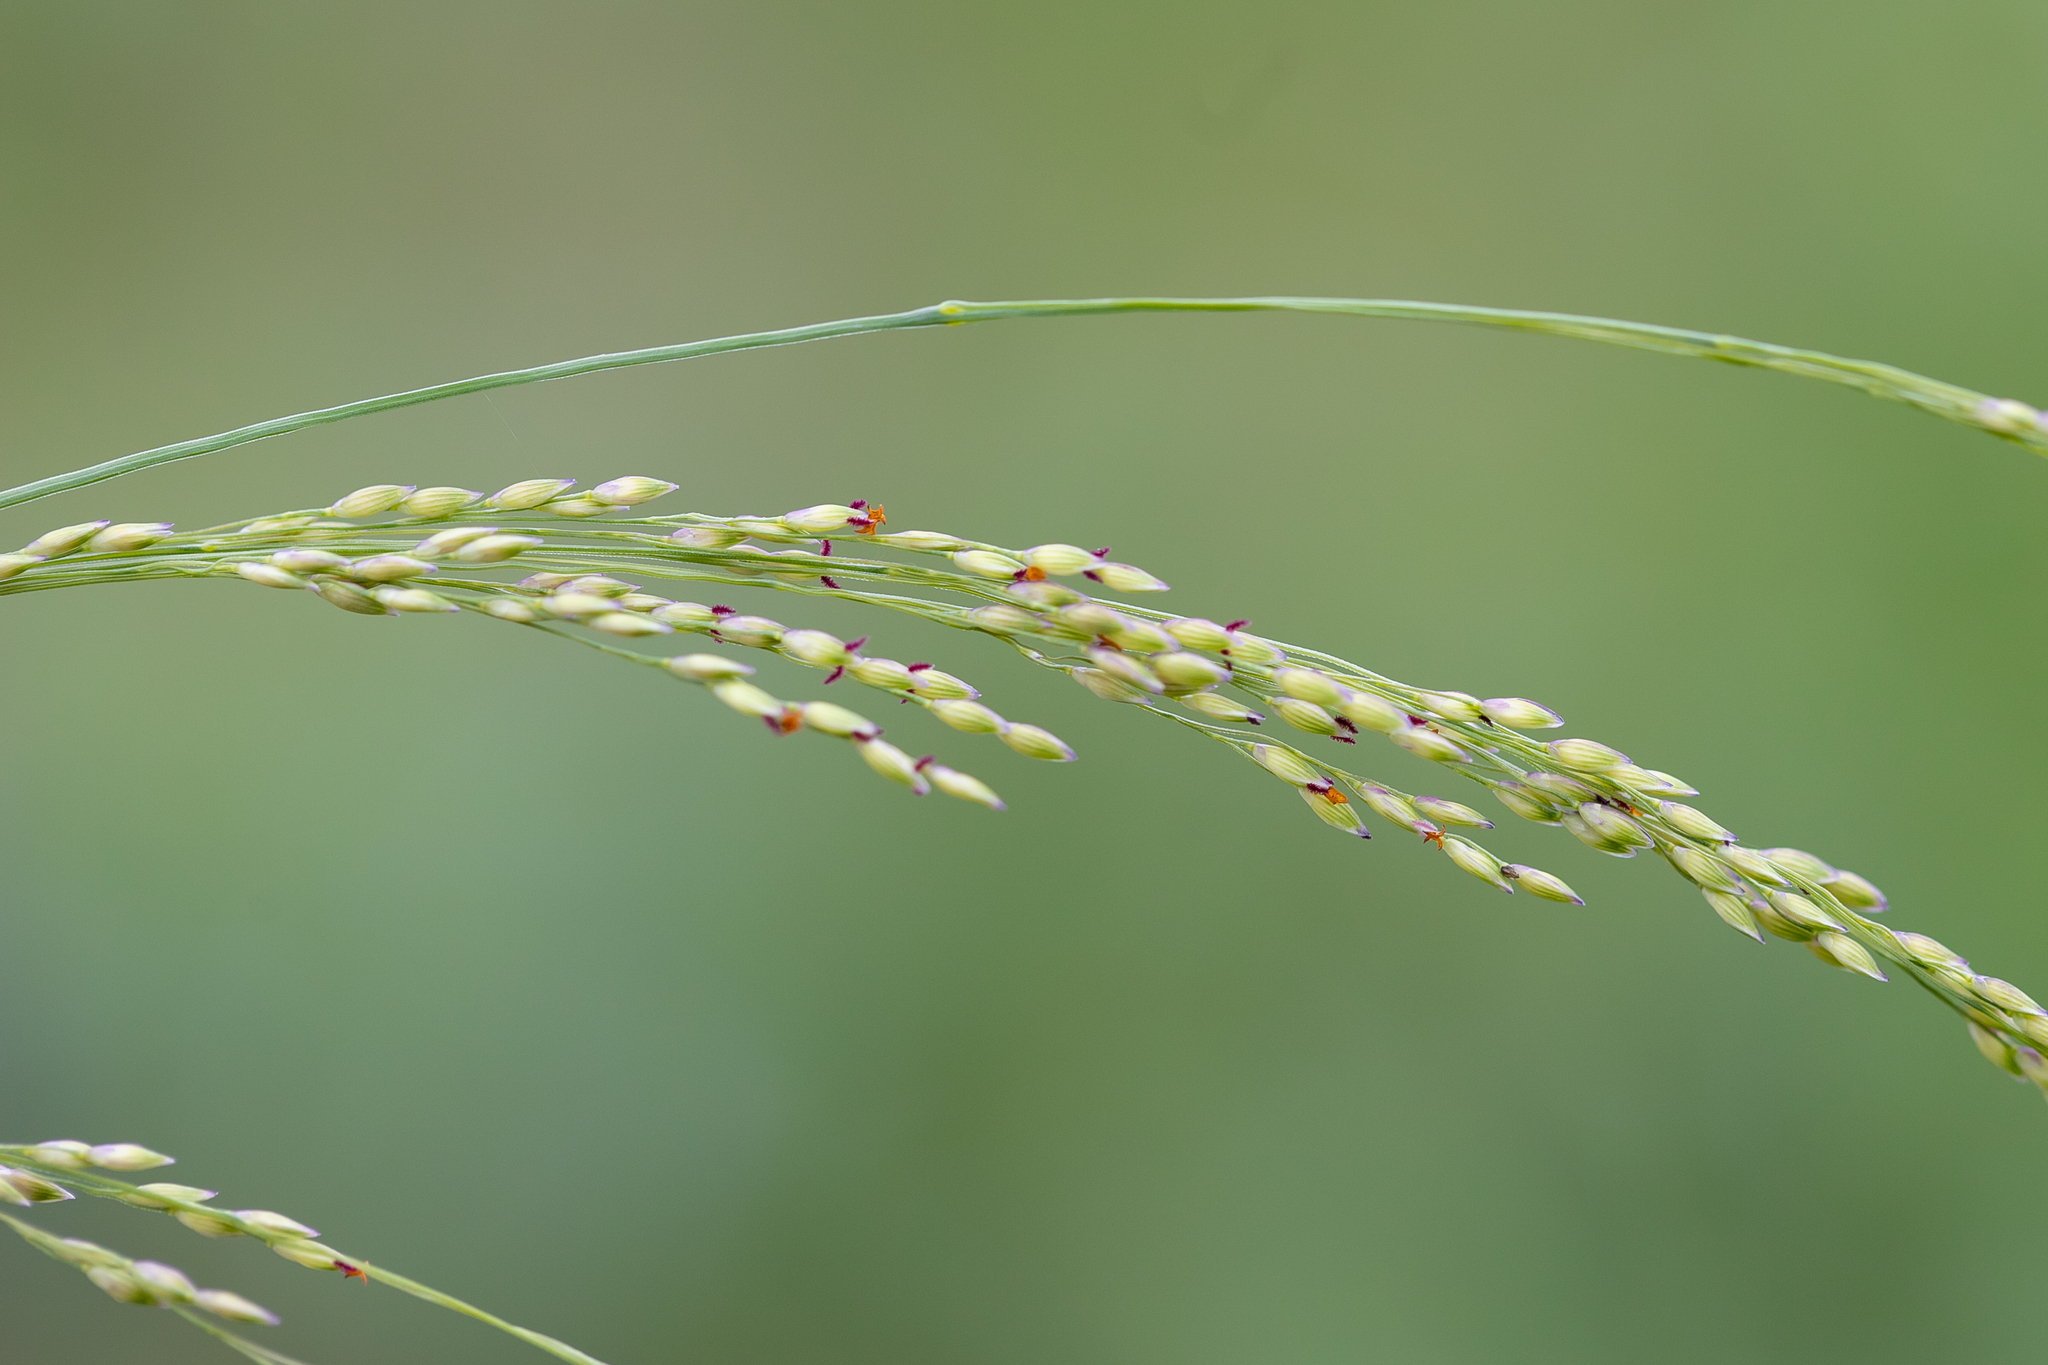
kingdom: Plantae
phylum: Tracheophyta
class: Liliopsida
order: Poales
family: Poaceae
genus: Panicum
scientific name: Panicum laevinode
